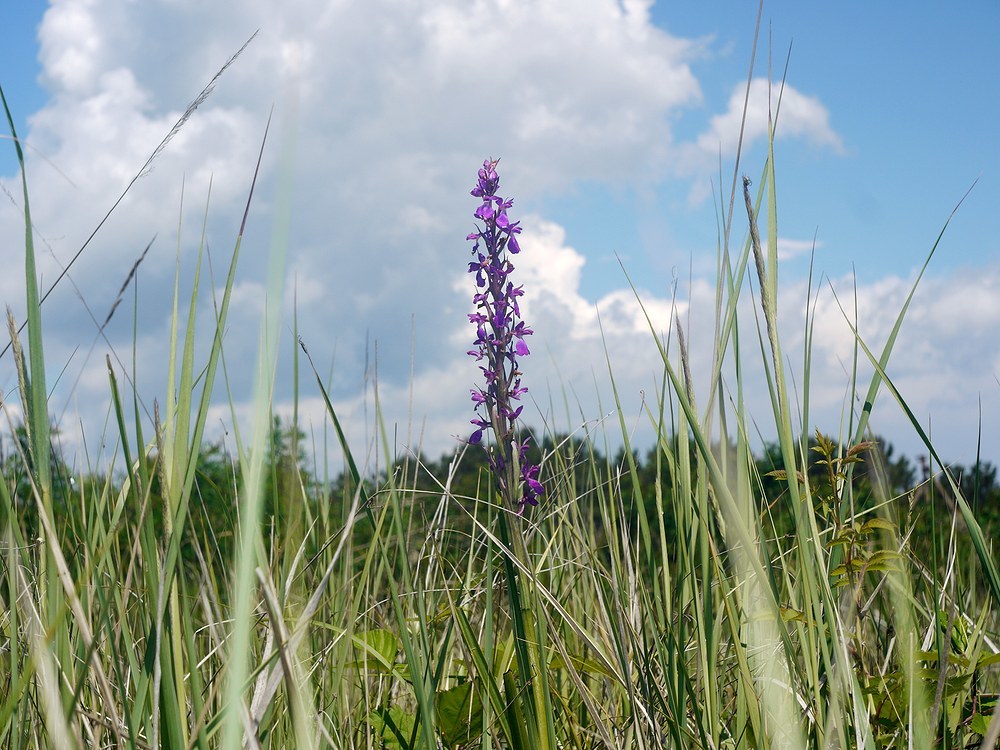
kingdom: Plantae
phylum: Tracheophyta
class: Liliopsida
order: Asparagales
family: Orchidaceae
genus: Anacamptis
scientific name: Anacamptis palustris
